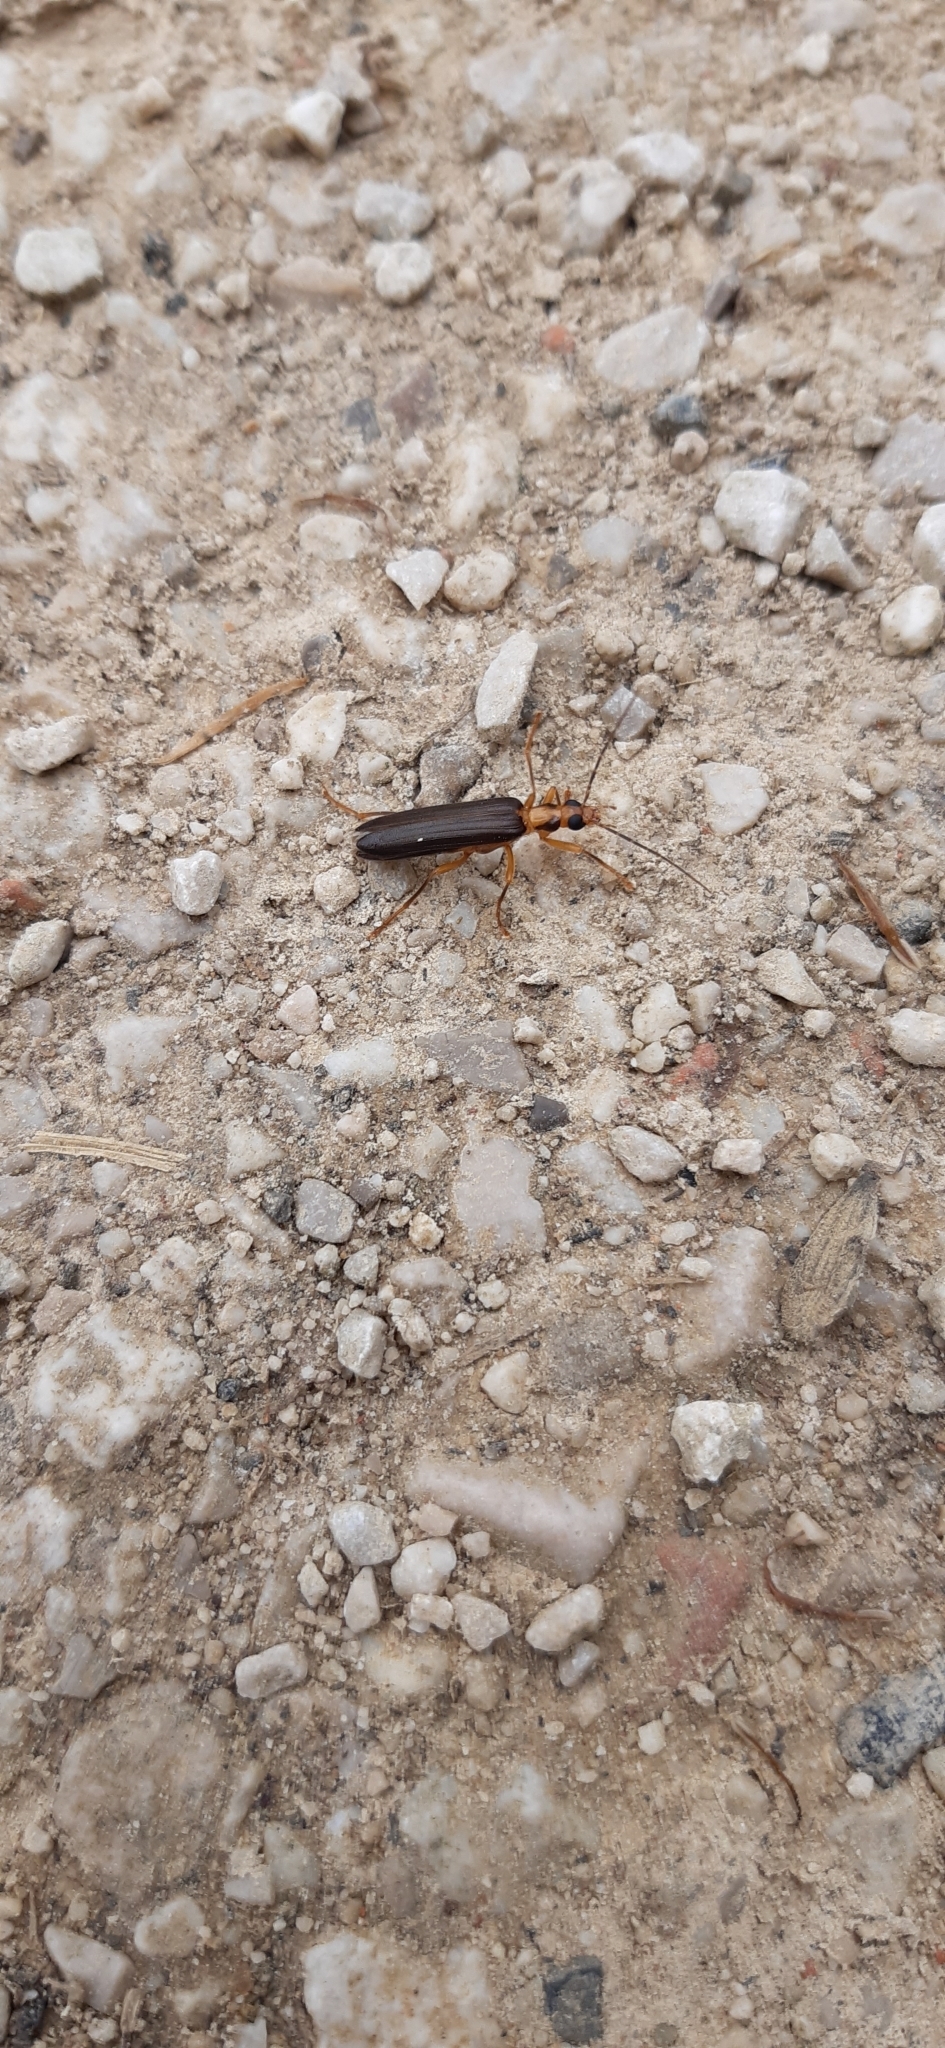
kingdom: Animalia
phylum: Arthropoda
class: Insecta
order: Coleoptera
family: Oedemeridae
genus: Nacerdes
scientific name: Nacerdes carniolica
